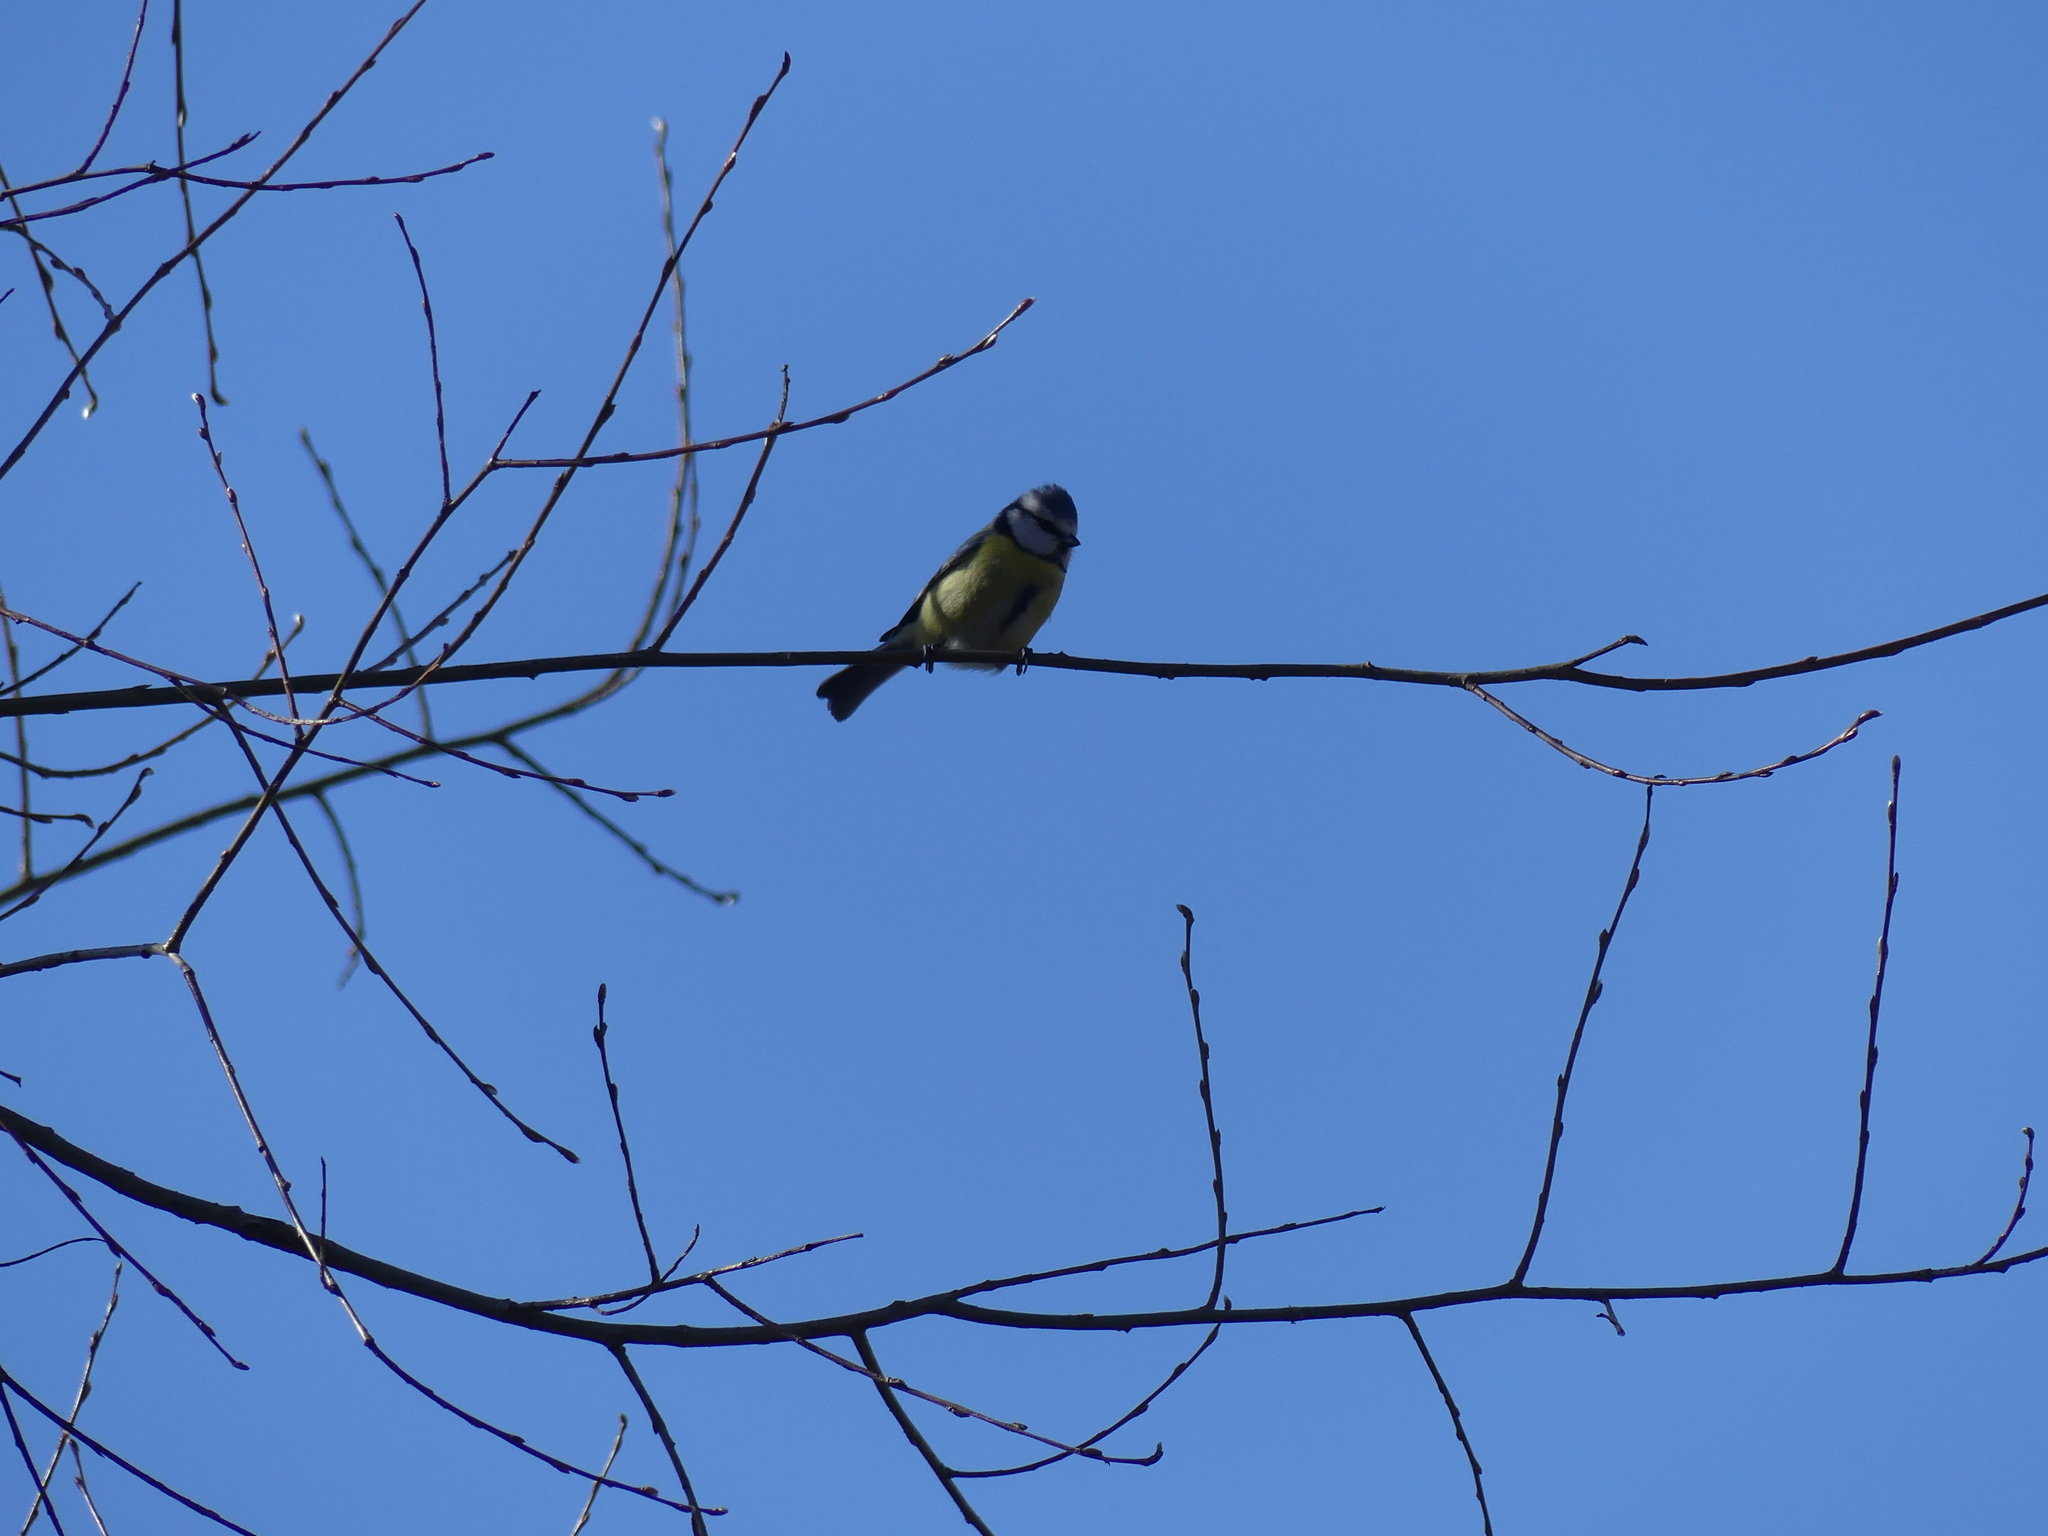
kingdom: Animalia
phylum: Chordata
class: Aves
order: Passeriformes
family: Paridae
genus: Cyanistes
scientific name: Cyanistes caeruleus
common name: Eurasian blue tit
